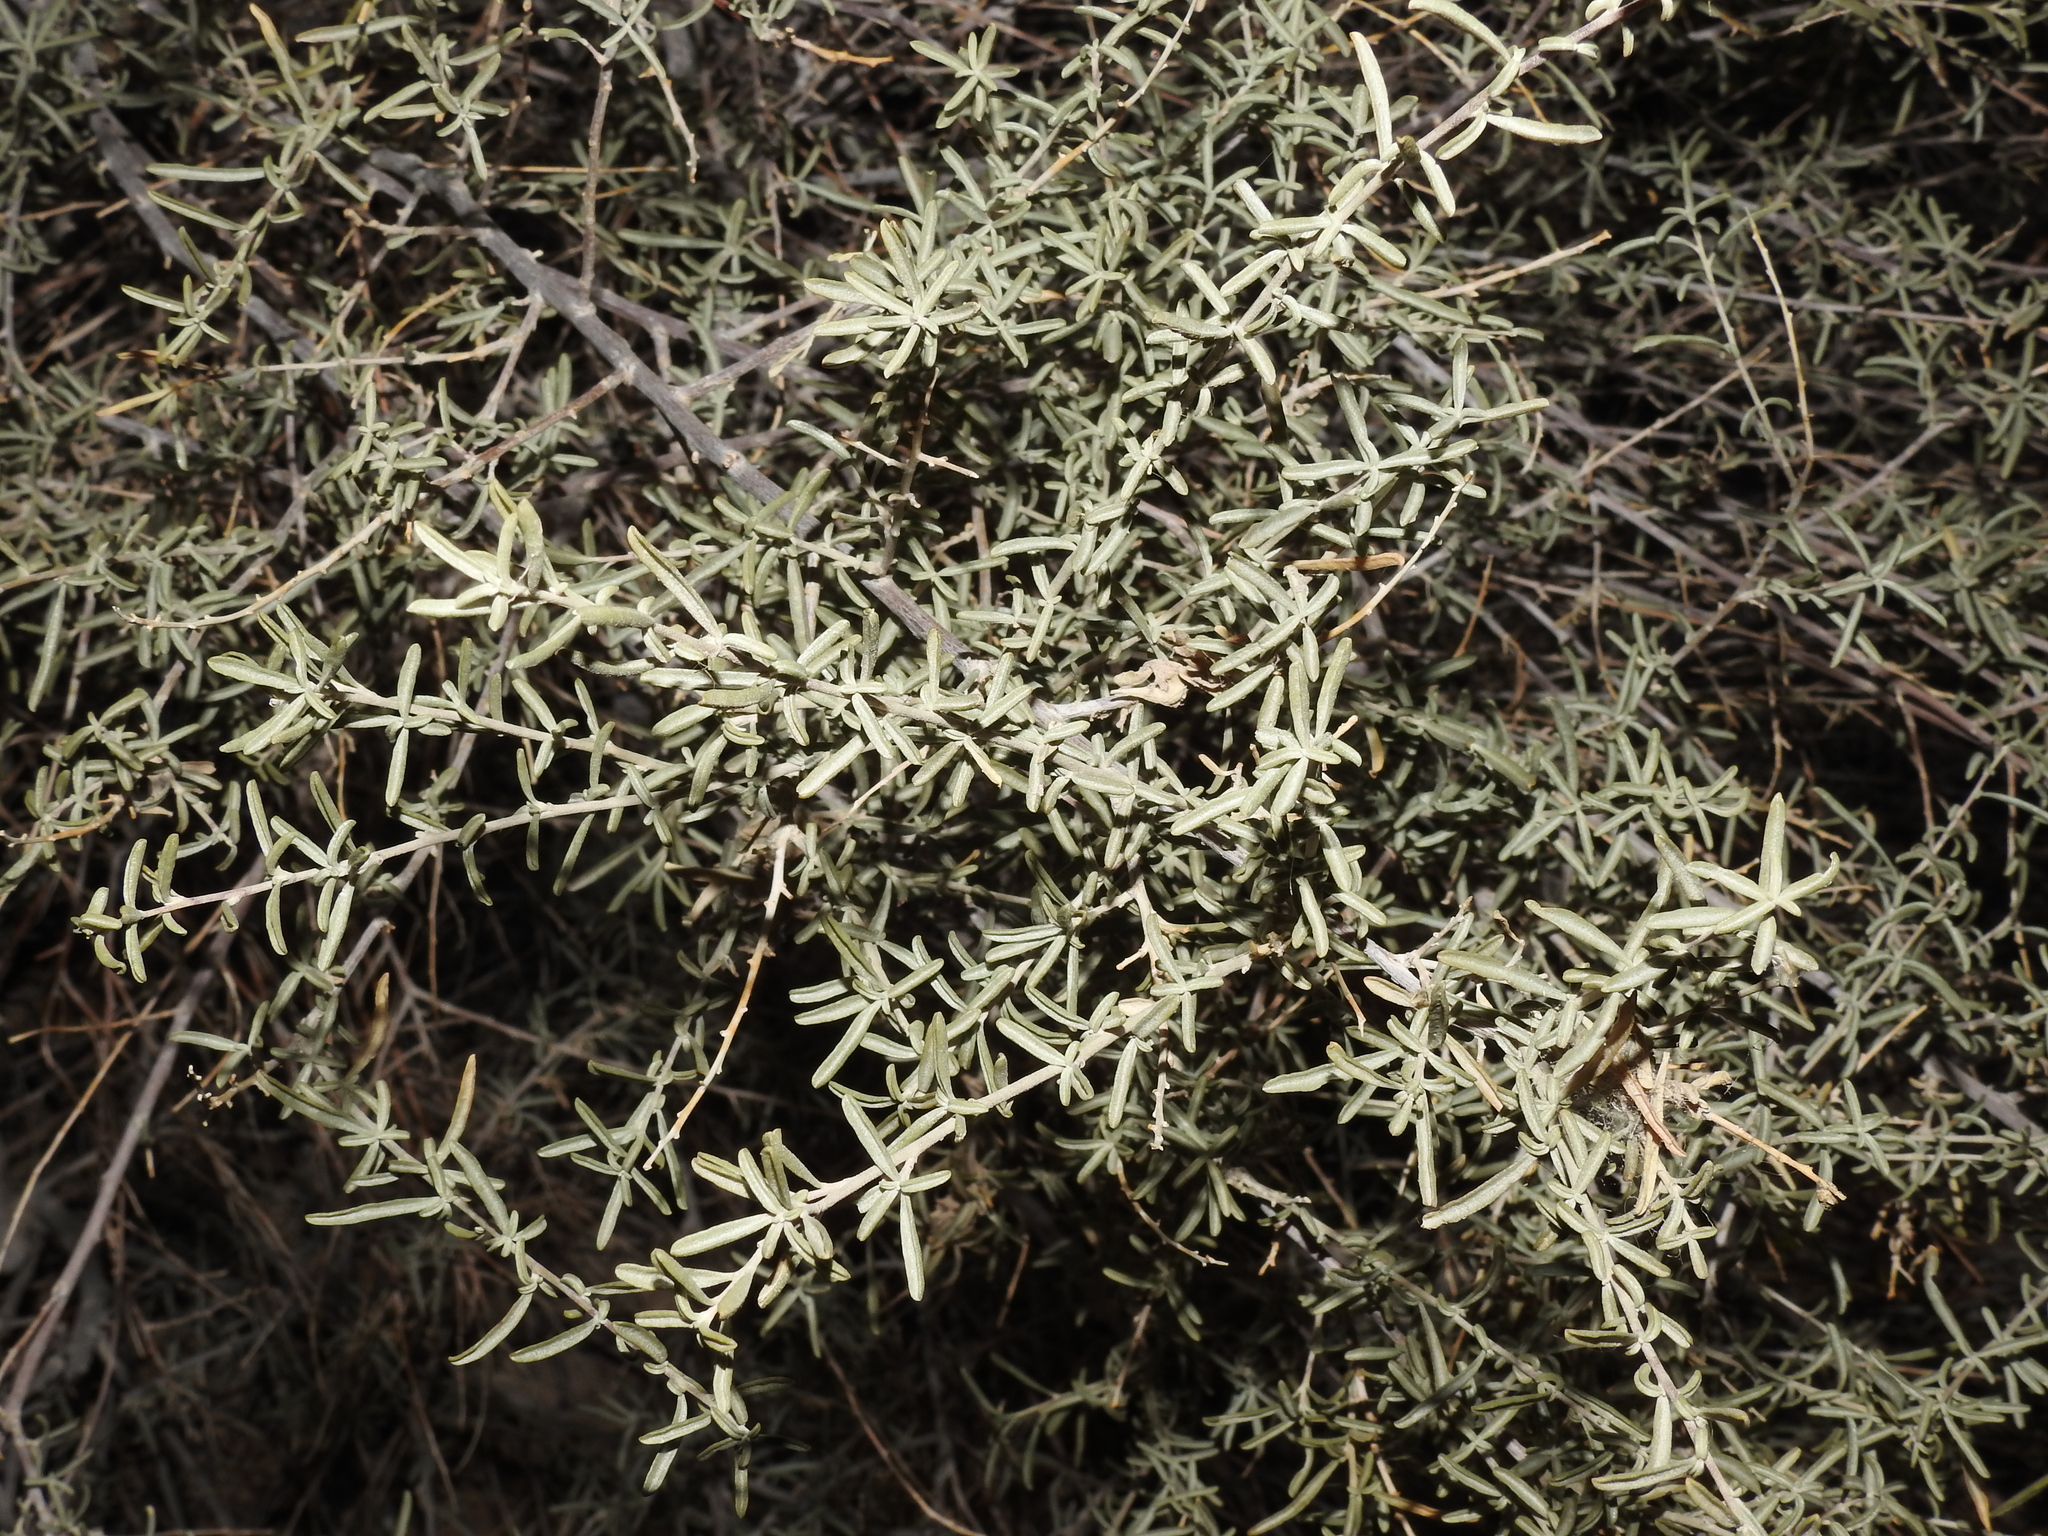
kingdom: Plantae
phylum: Tracheophyta
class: Magnoliopsida
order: Caryophyllales
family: Amaranthaceae
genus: Atriplex
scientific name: Atriplex canescens
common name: Four-wing saltbush
